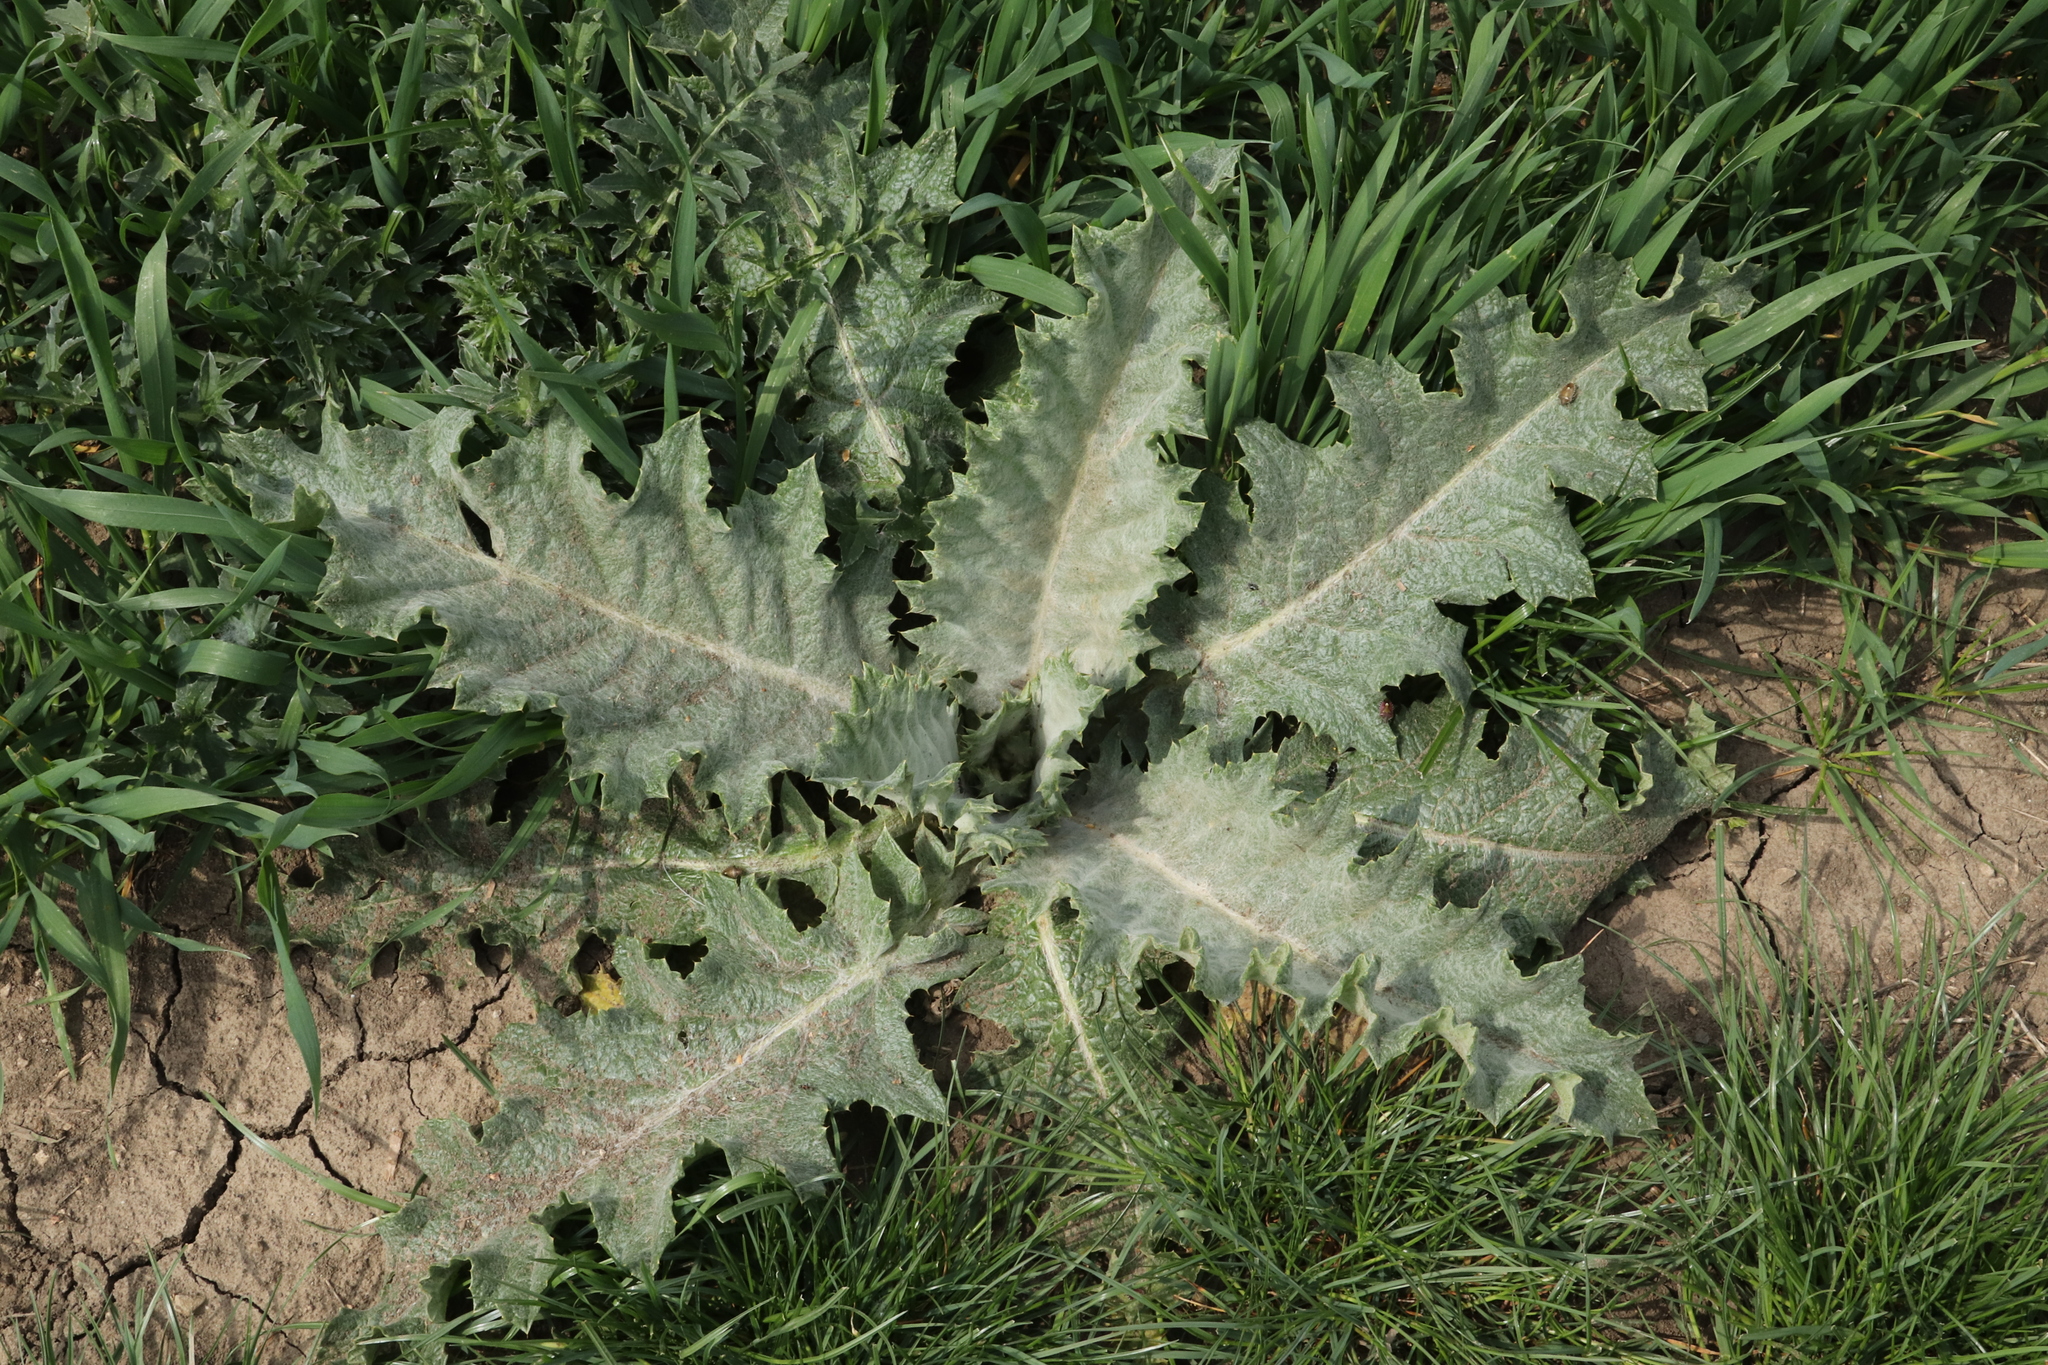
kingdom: Plantae
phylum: Tracheophyta
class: Magnoliopsida
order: Asterales
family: Asteraceae
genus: Onopordum
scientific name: Onopordum acanthium
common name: Scotch thistle
